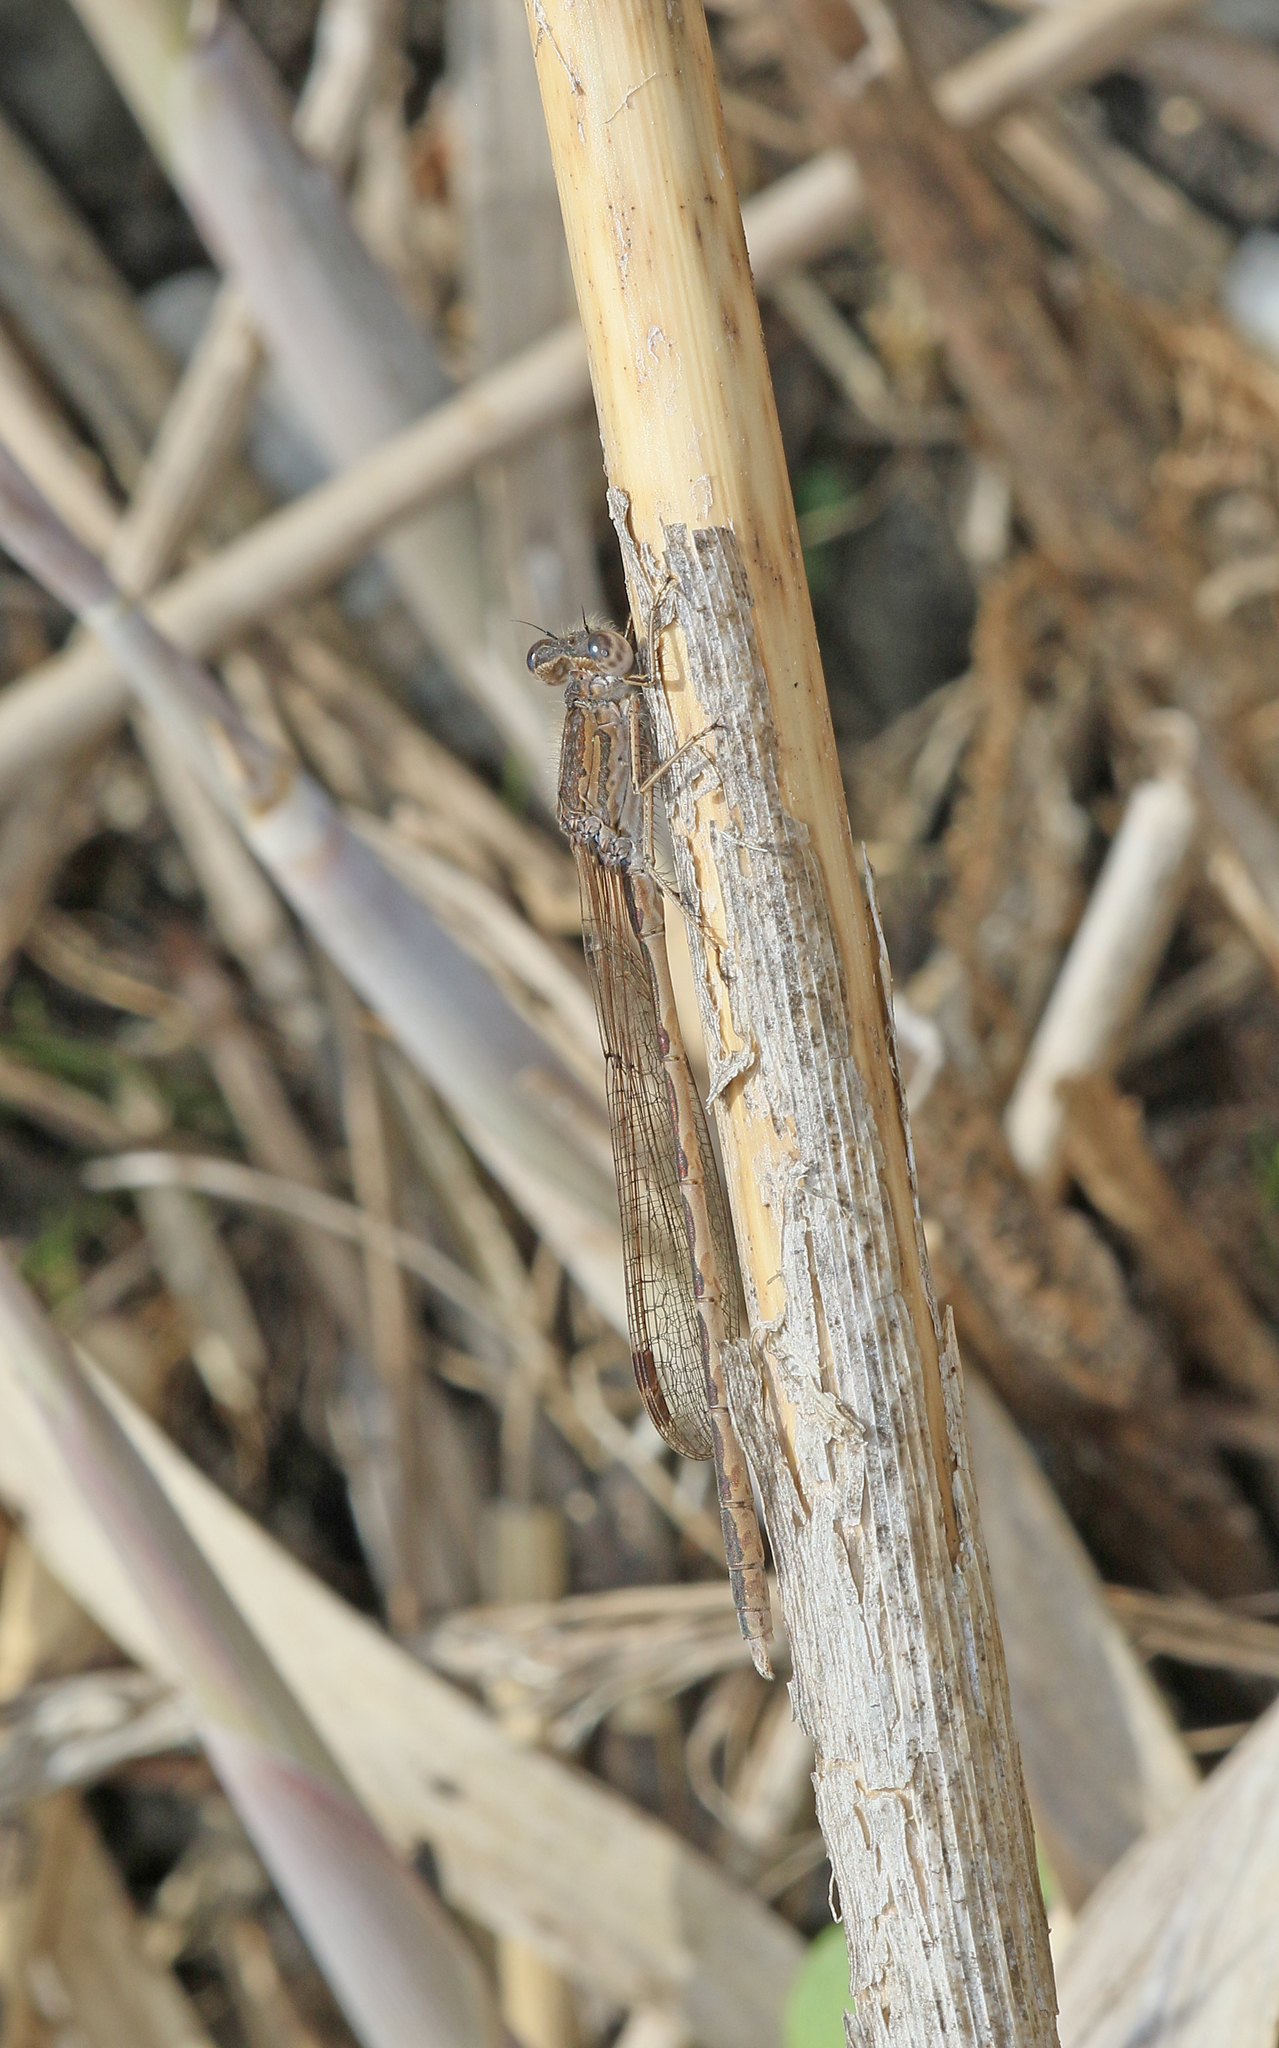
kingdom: Animalia
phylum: Arthropoda
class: Insecta
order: Odonata
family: Lestidae
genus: Sympecma
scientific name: Sympecma paedisca
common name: Siberian winter damsel
